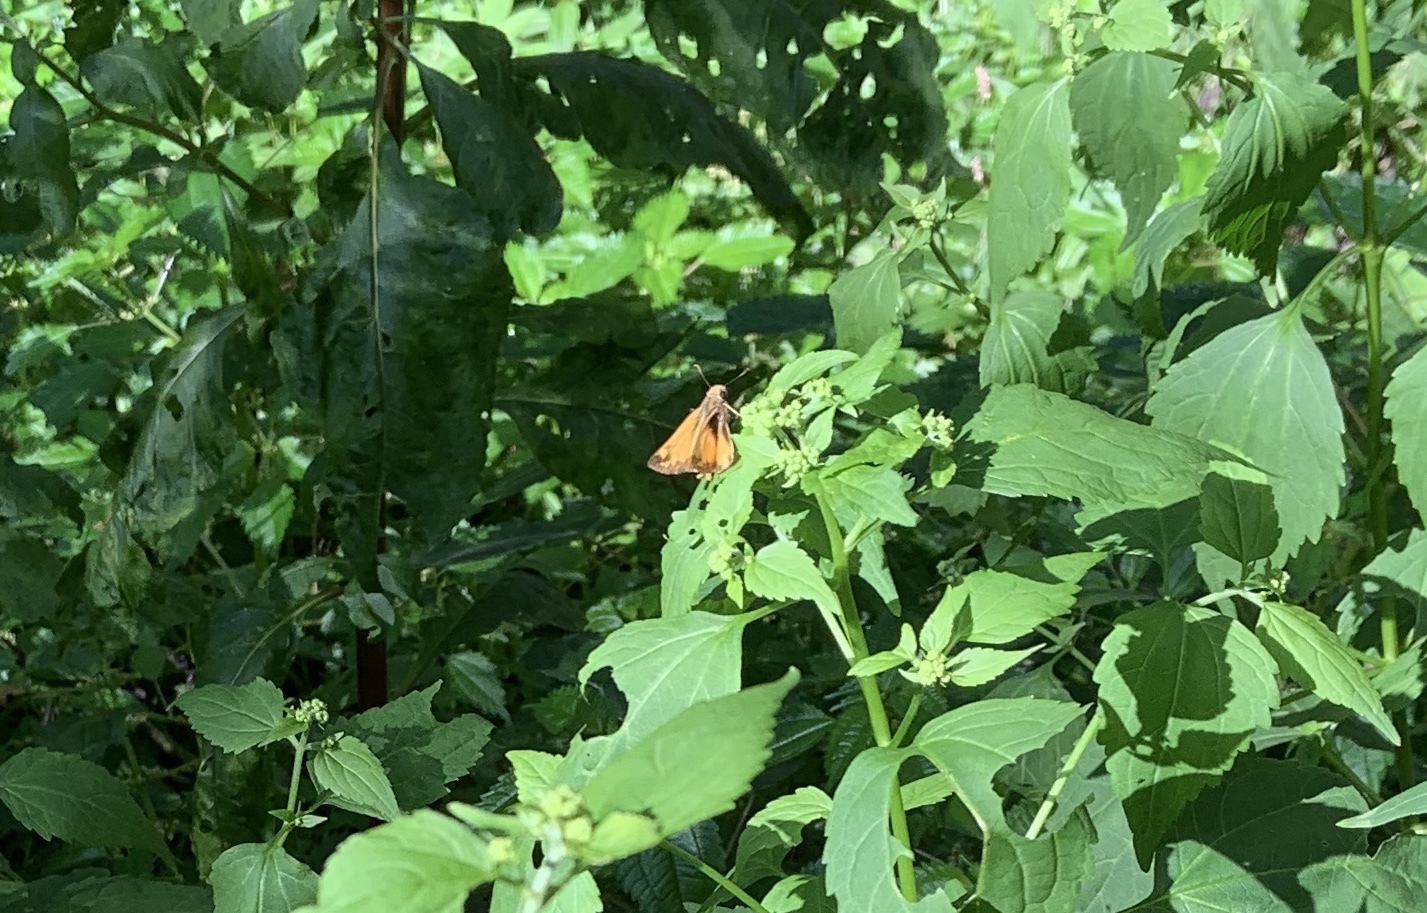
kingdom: Animalia
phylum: Arthropoda
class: Insecta
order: Lepidoptera
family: Hesperiidae
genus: Lon
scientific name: Lon zabulon
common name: Zabulon skipper
